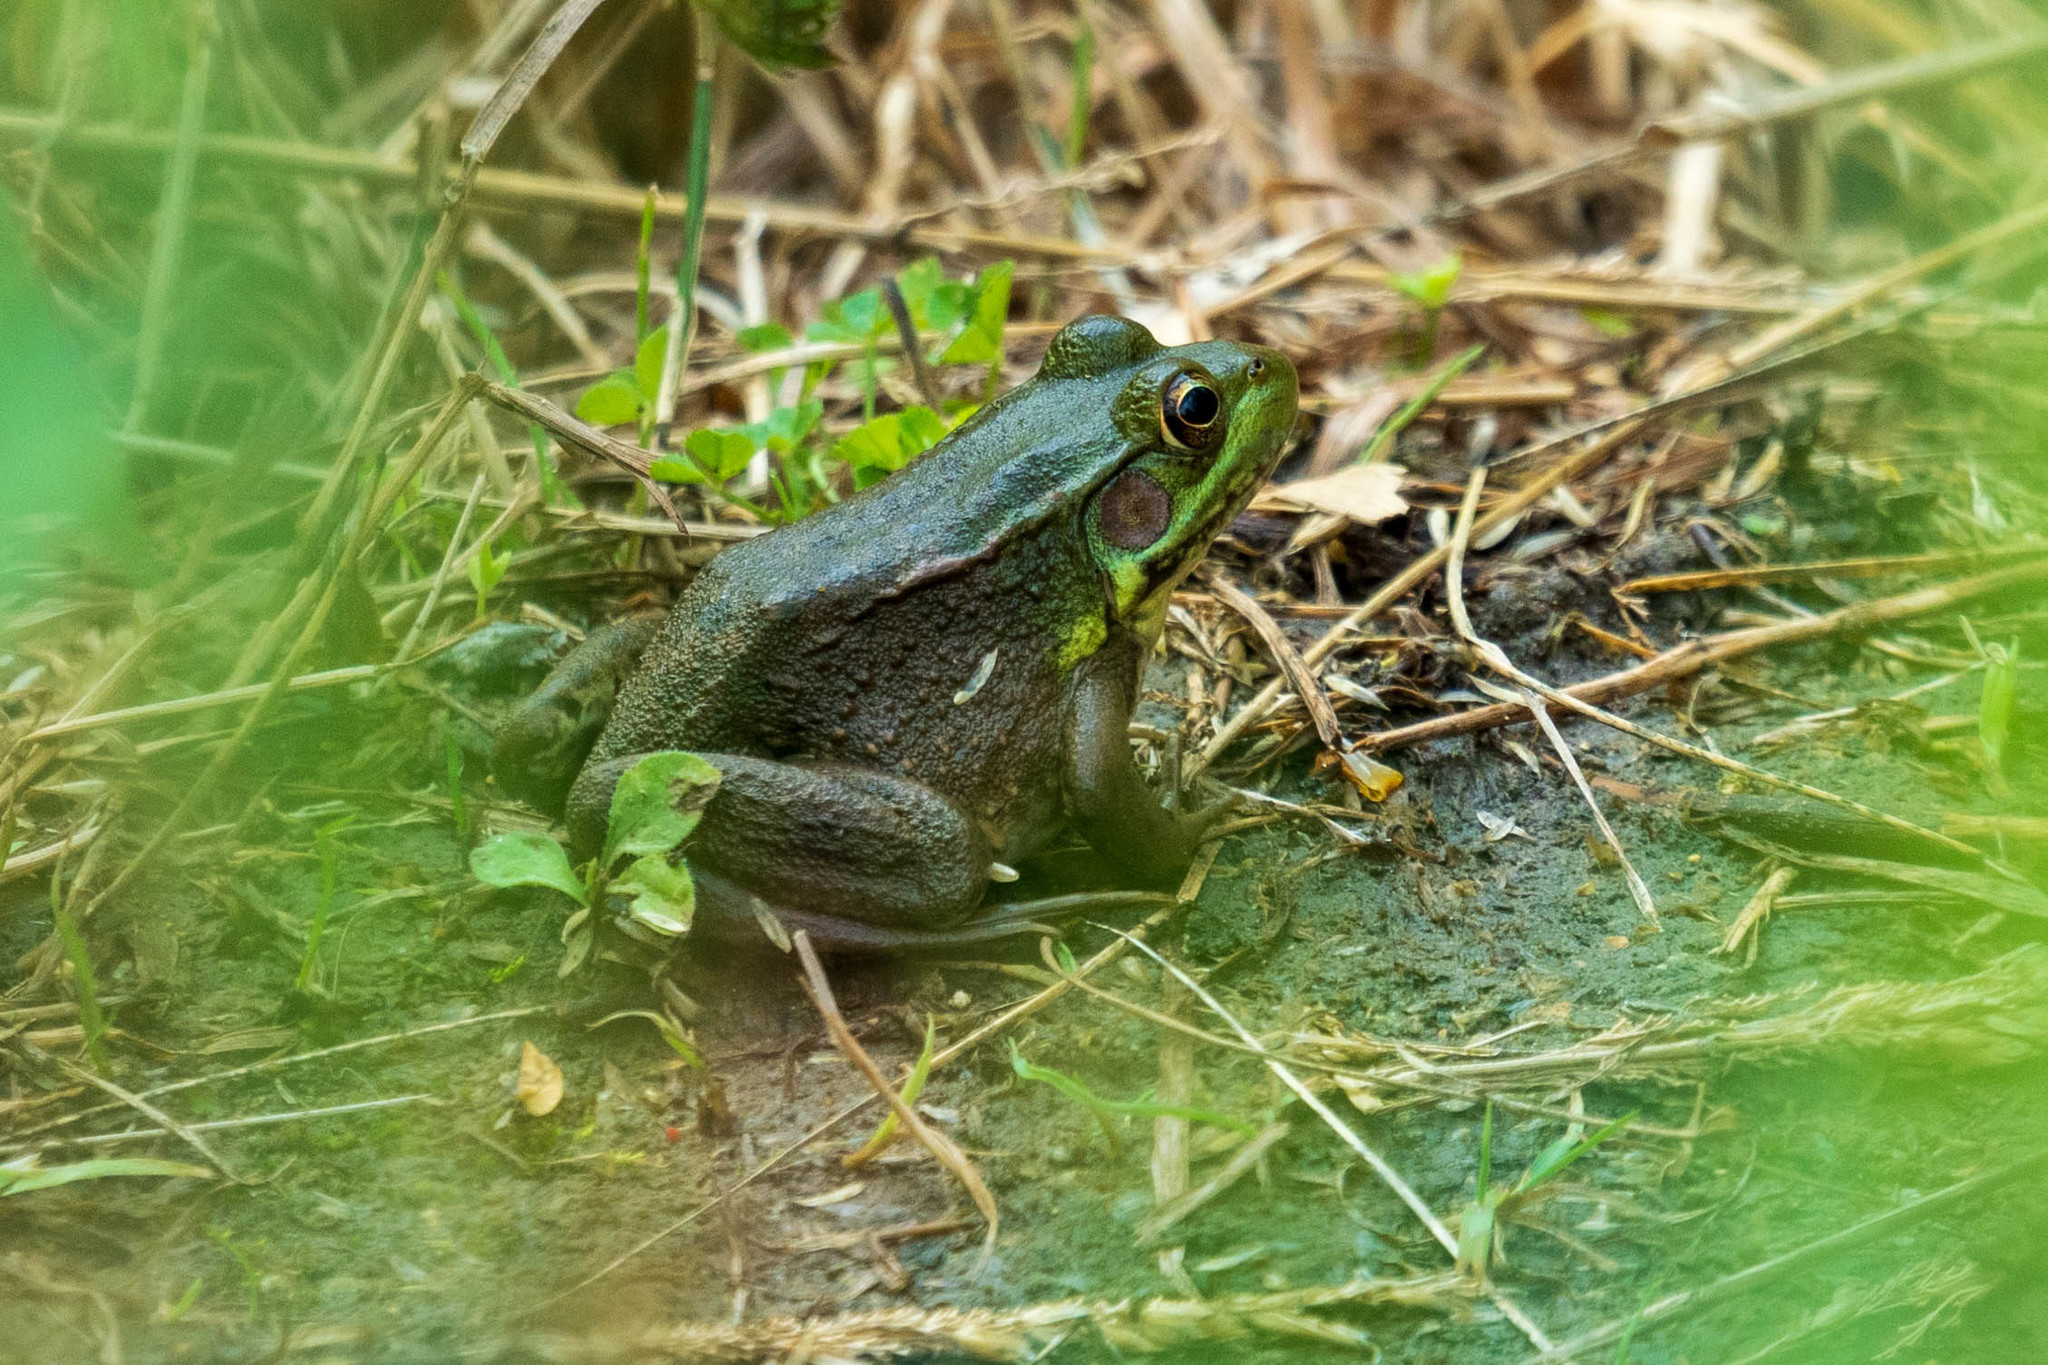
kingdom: Animalia
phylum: Chordata
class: Amphibia
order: Anura
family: Ranidae
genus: Lithobates
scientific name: Lithobates clamitans
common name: Green frog
